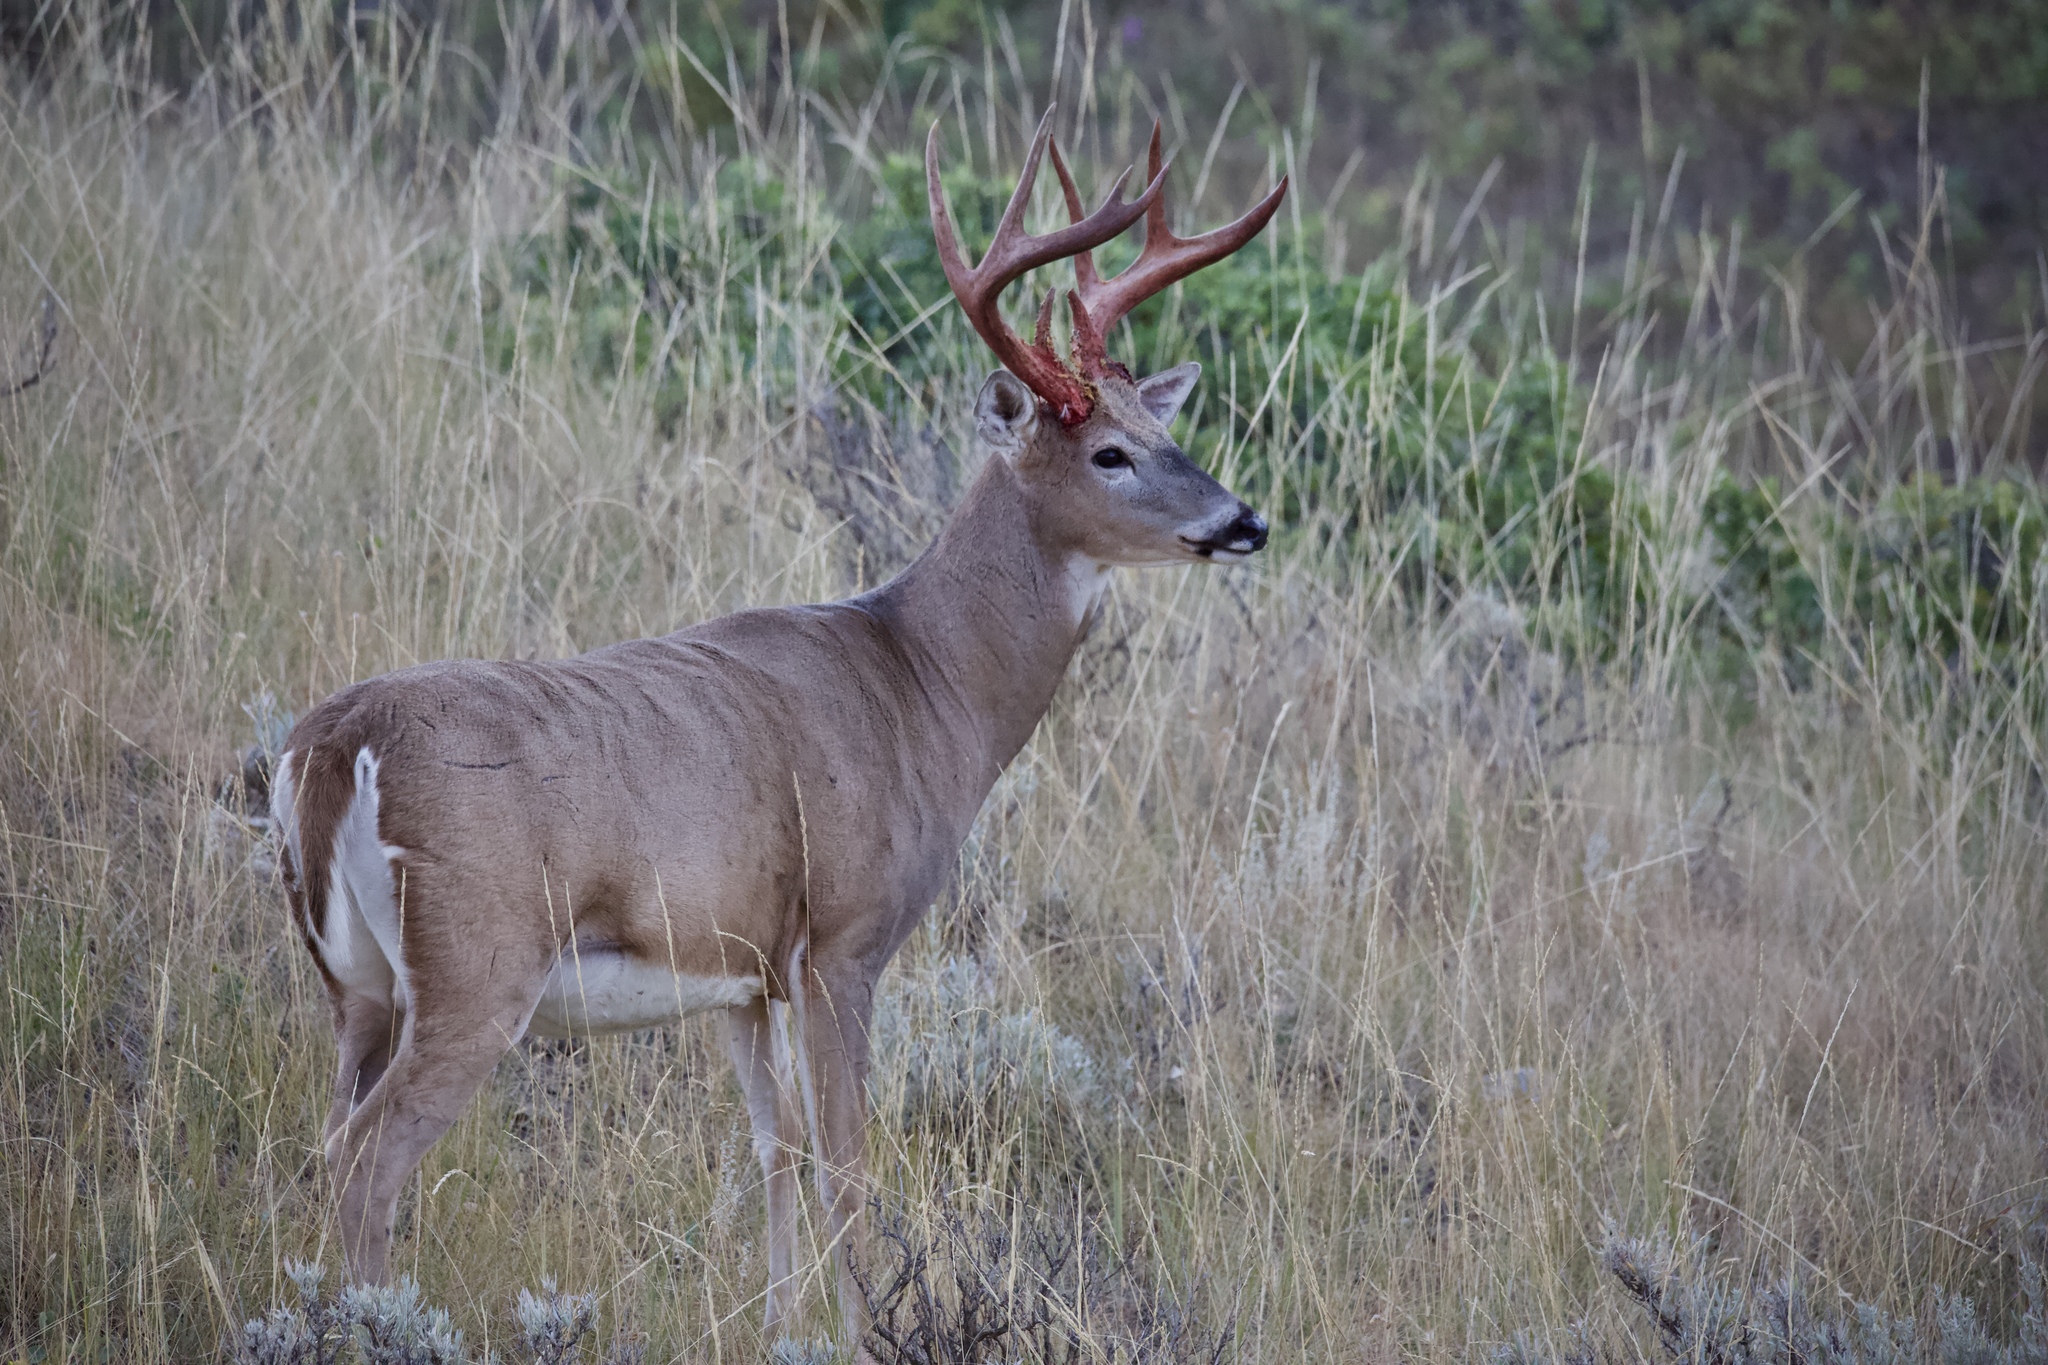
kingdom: Animalia
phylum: Chordata
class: Mammalia
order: Artiodactyla
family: Cervidae
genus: Odocoileus
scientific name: Odocoileus virginianus
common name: White-tailed deer
